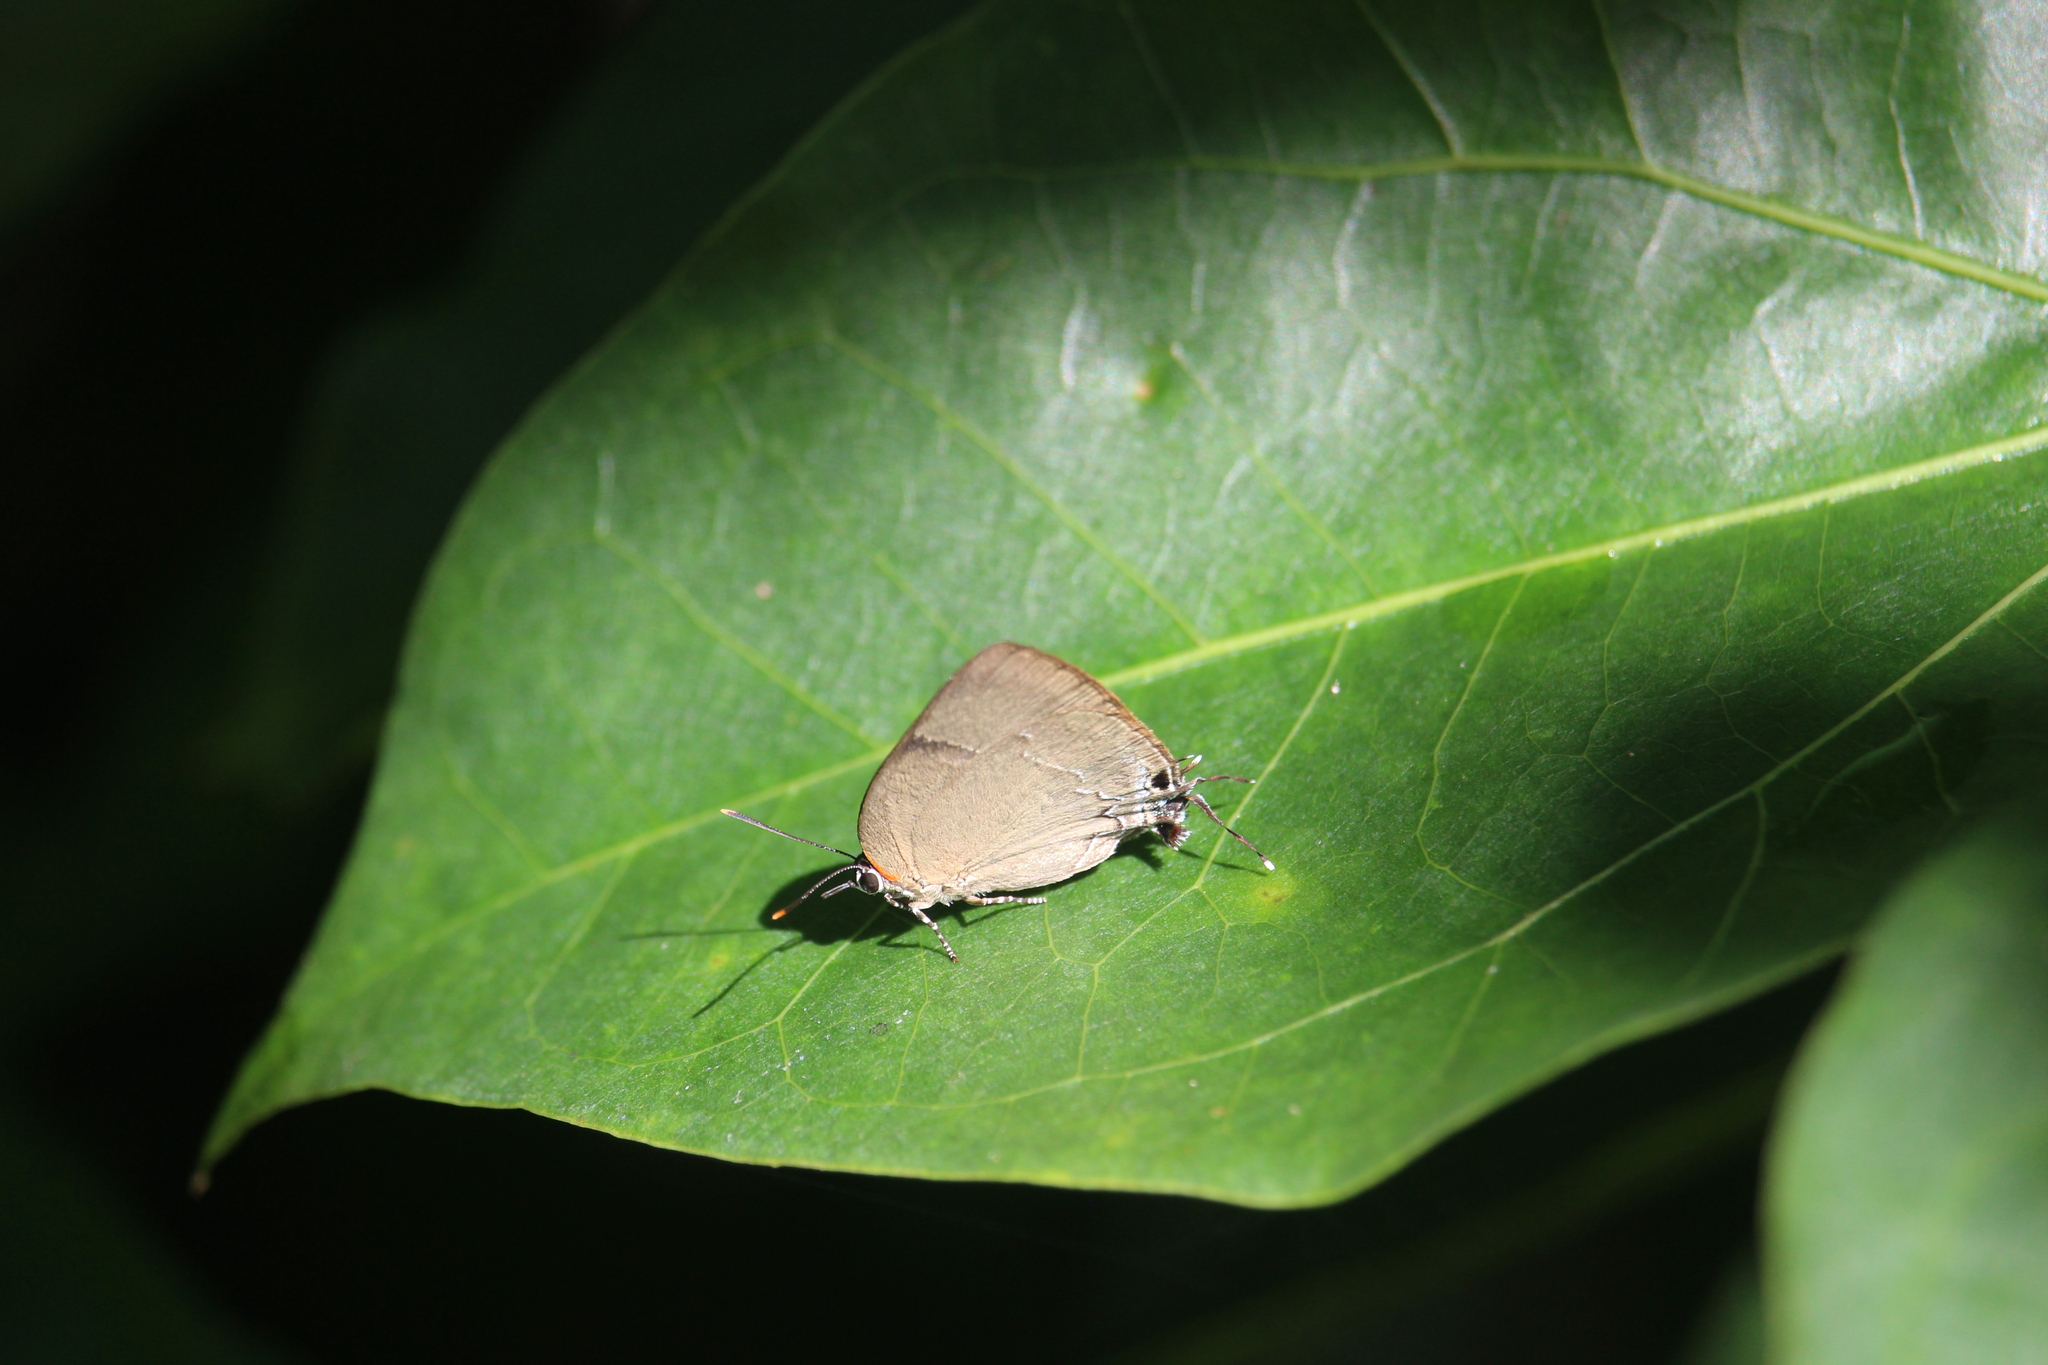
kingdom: Animalia
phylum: Arthropoda
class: Insecta
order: Lepidoptera
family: Lycaenidae
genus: Panthiades
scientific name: Panthiades bitias
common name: Bitias hairstreak
